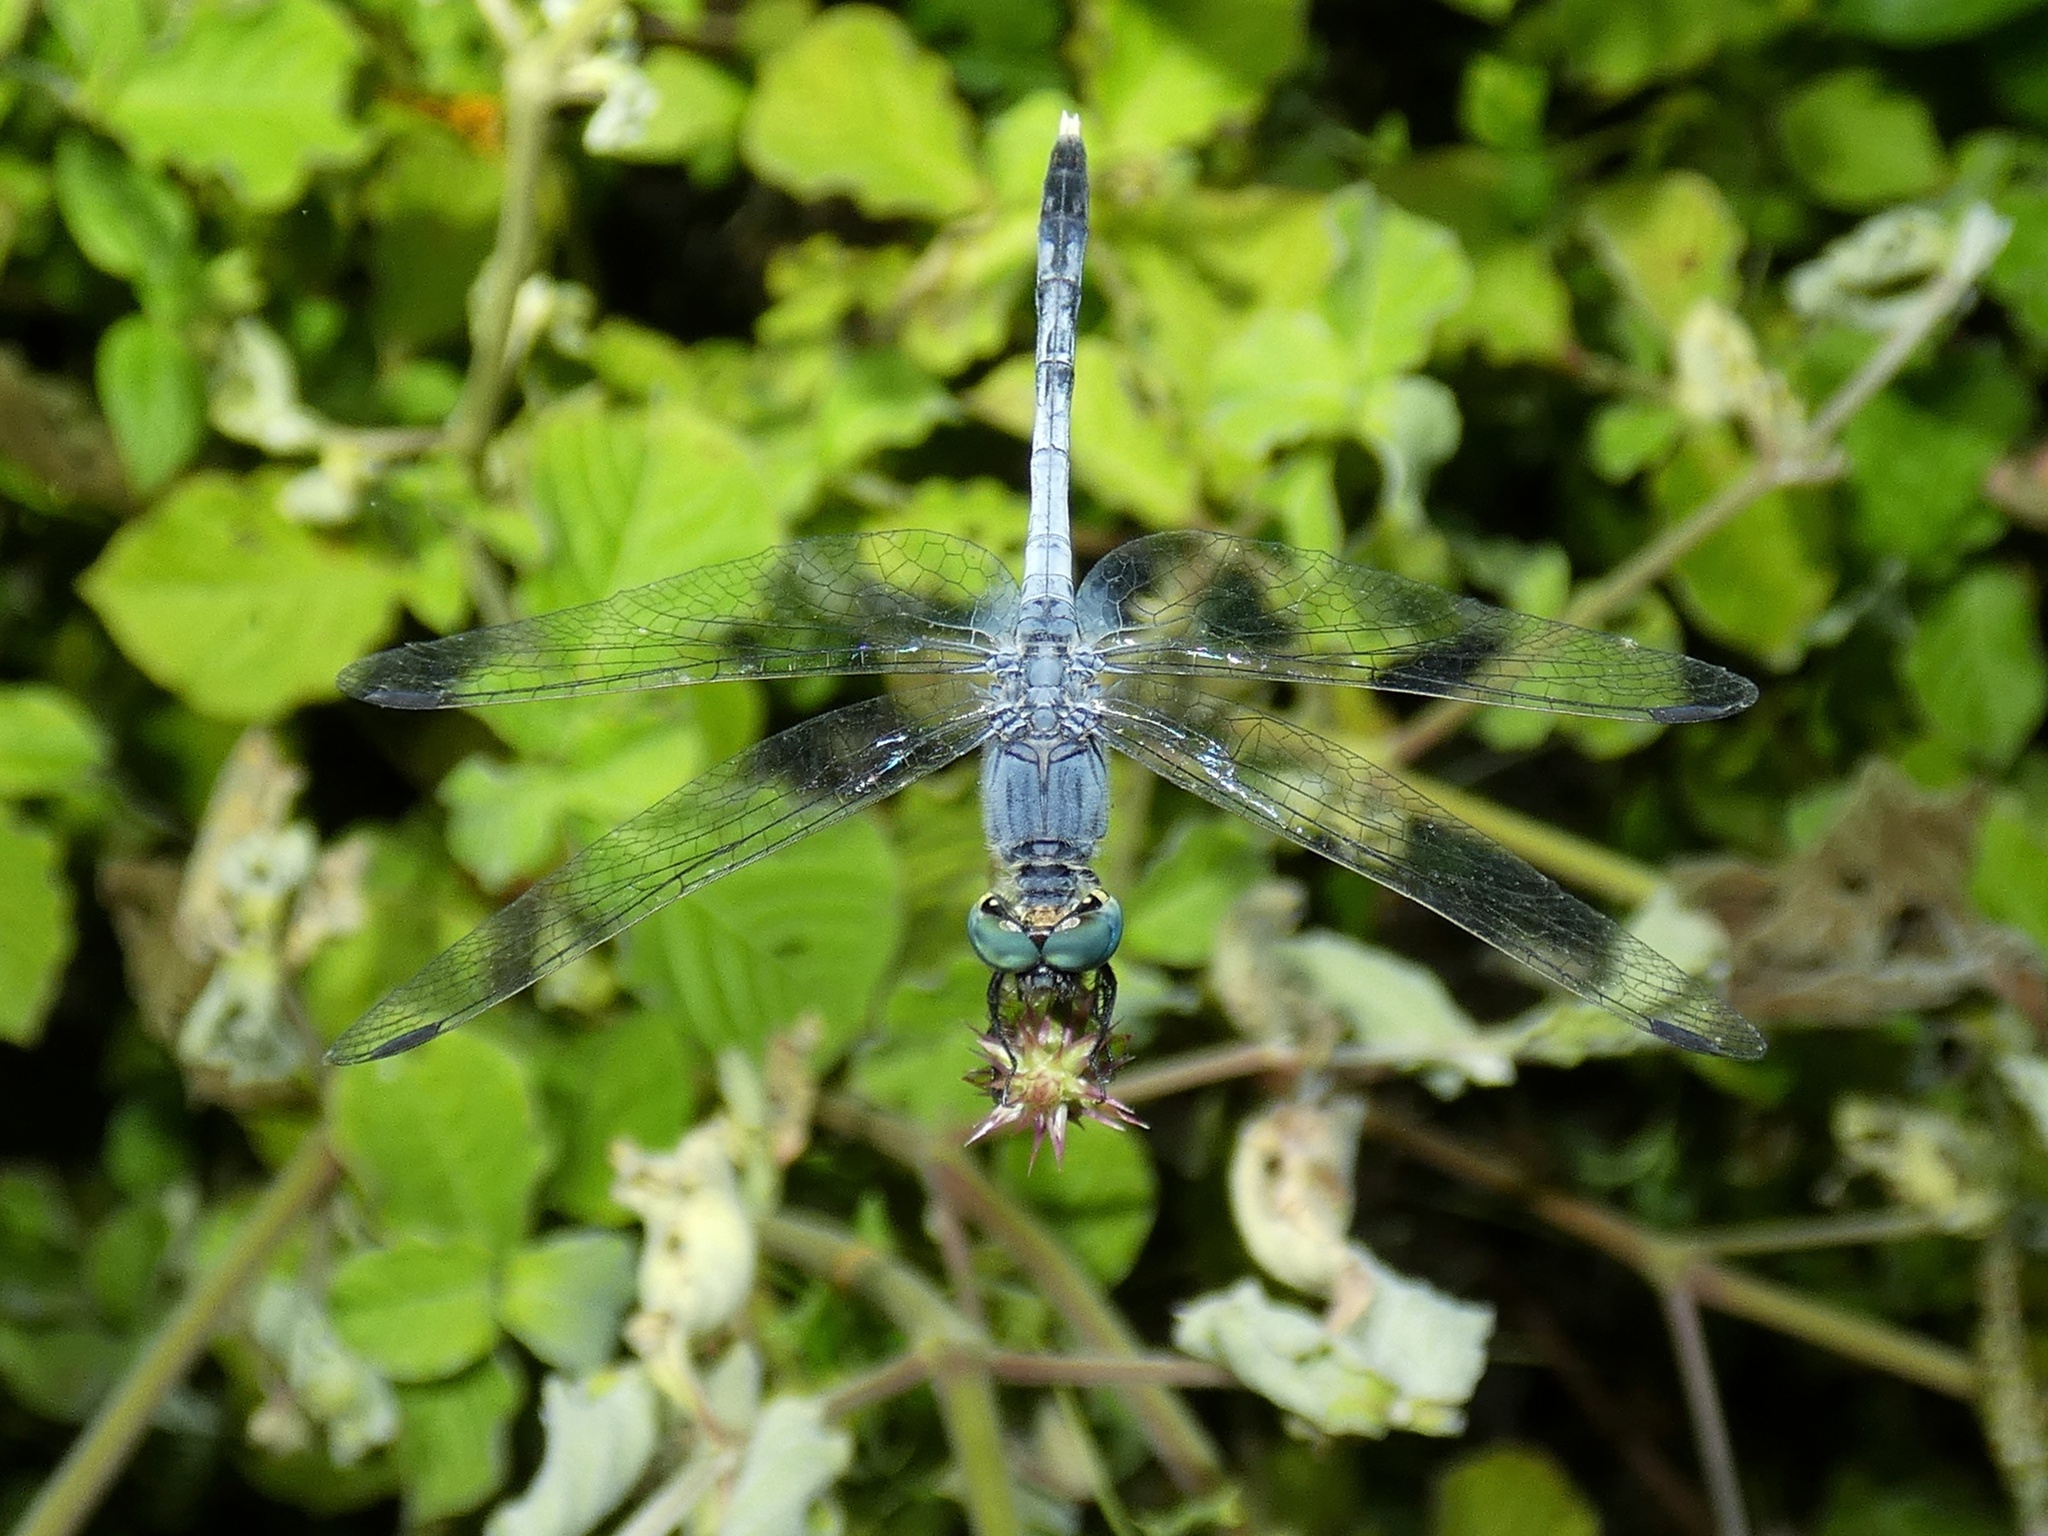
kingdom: Animalia
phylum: Arthropoda
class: Insecta
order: Odonata
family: Libellulidae
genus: Diplacodes
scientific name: Diplacodes trivialis
